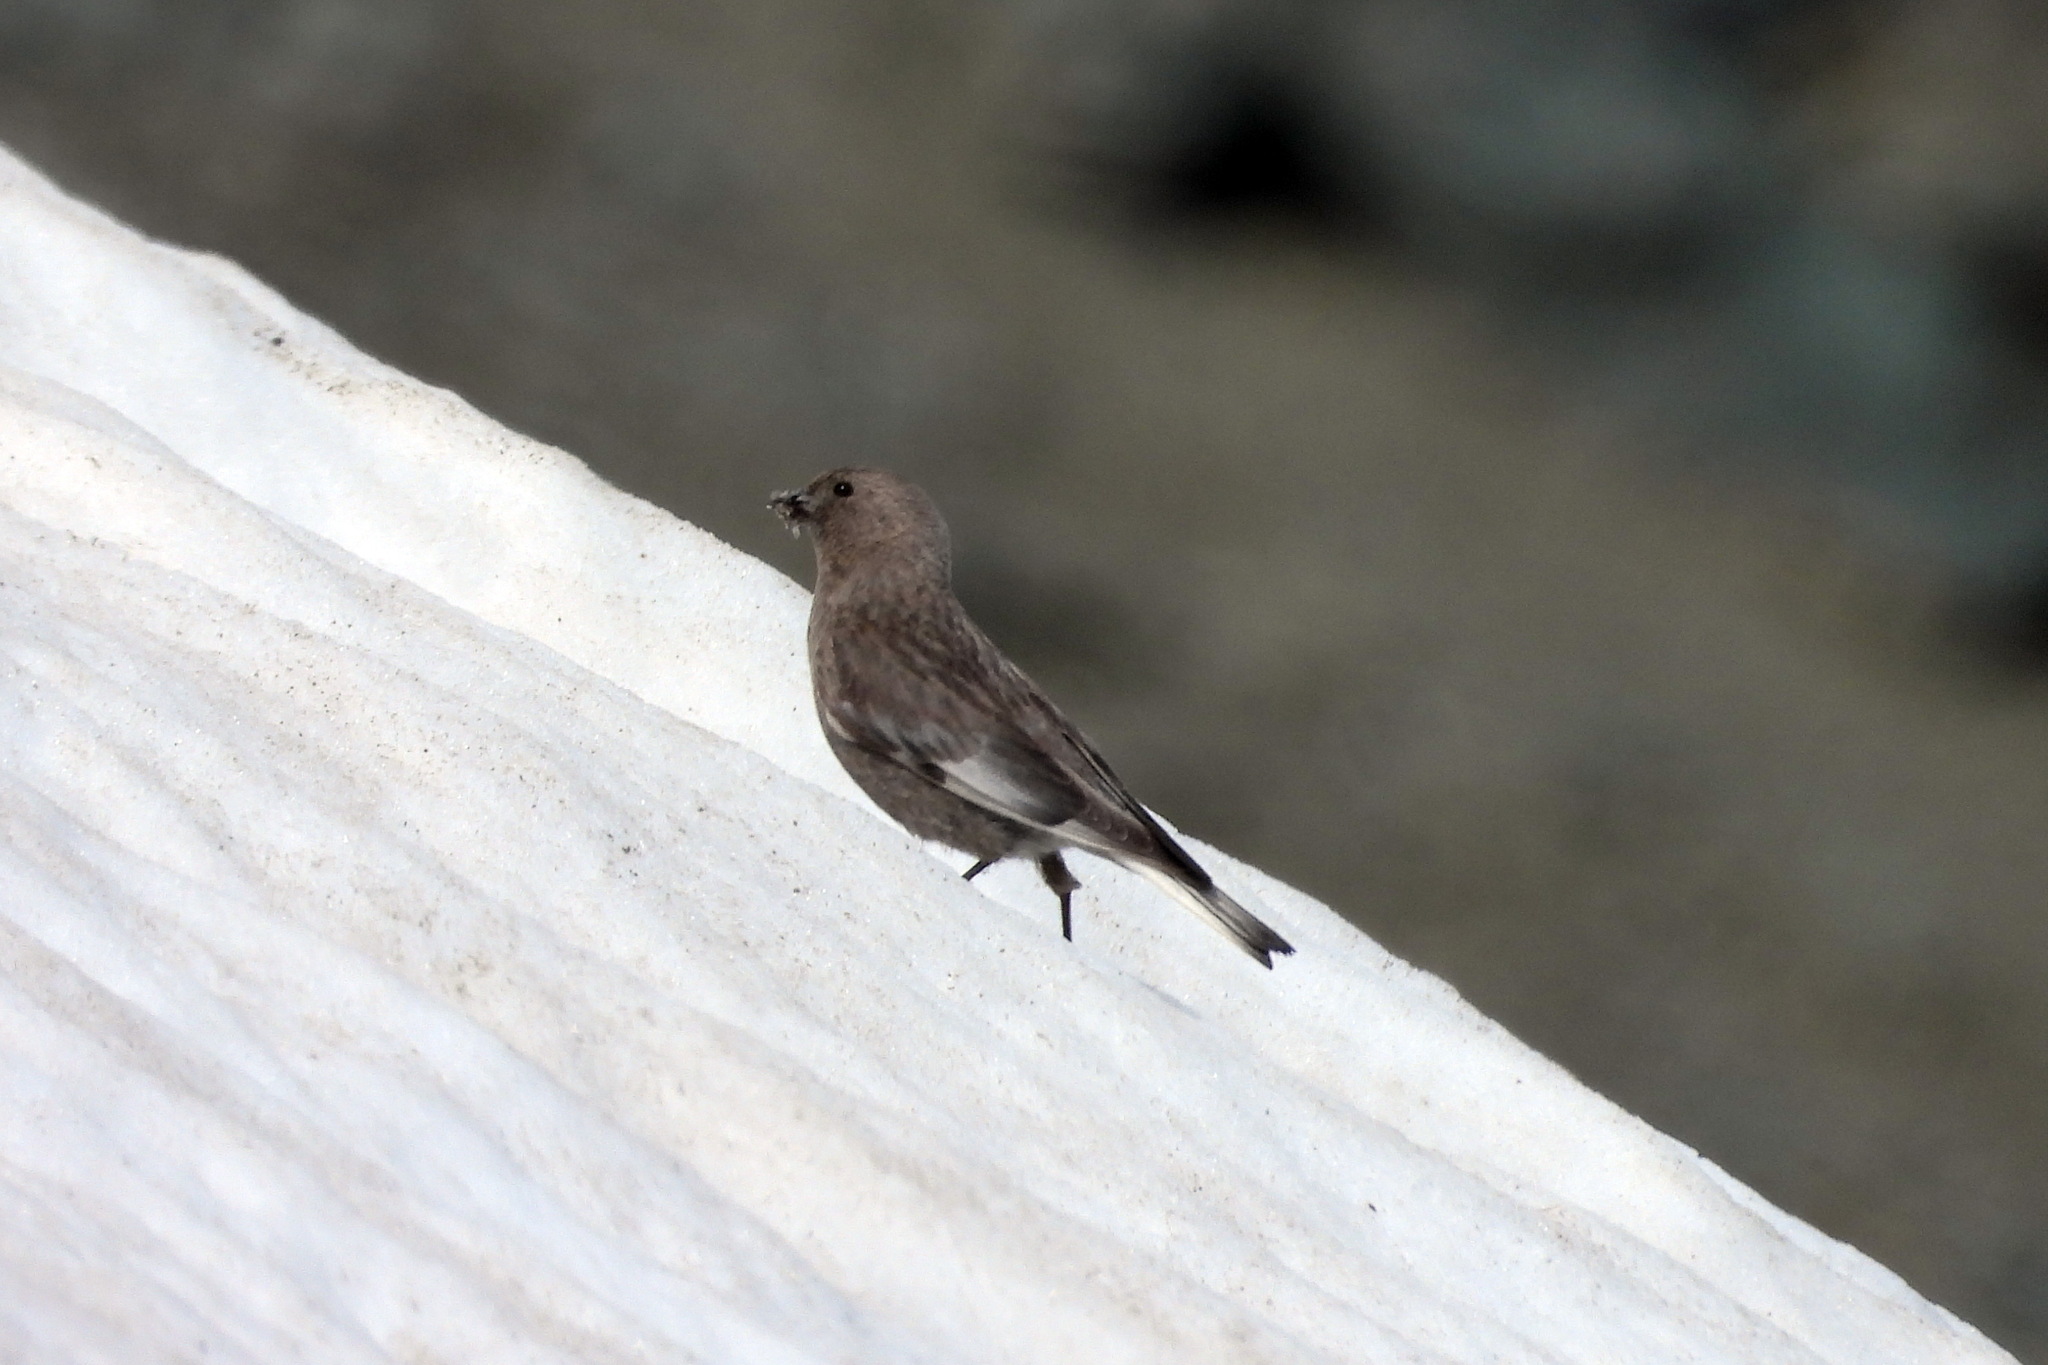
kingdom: Animalia
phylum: Chordata
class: Aves
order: Passeriformes
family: Fringillidae
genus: Leucosticte
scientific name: Leucosticte arctoa
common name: Asian rosy finch
